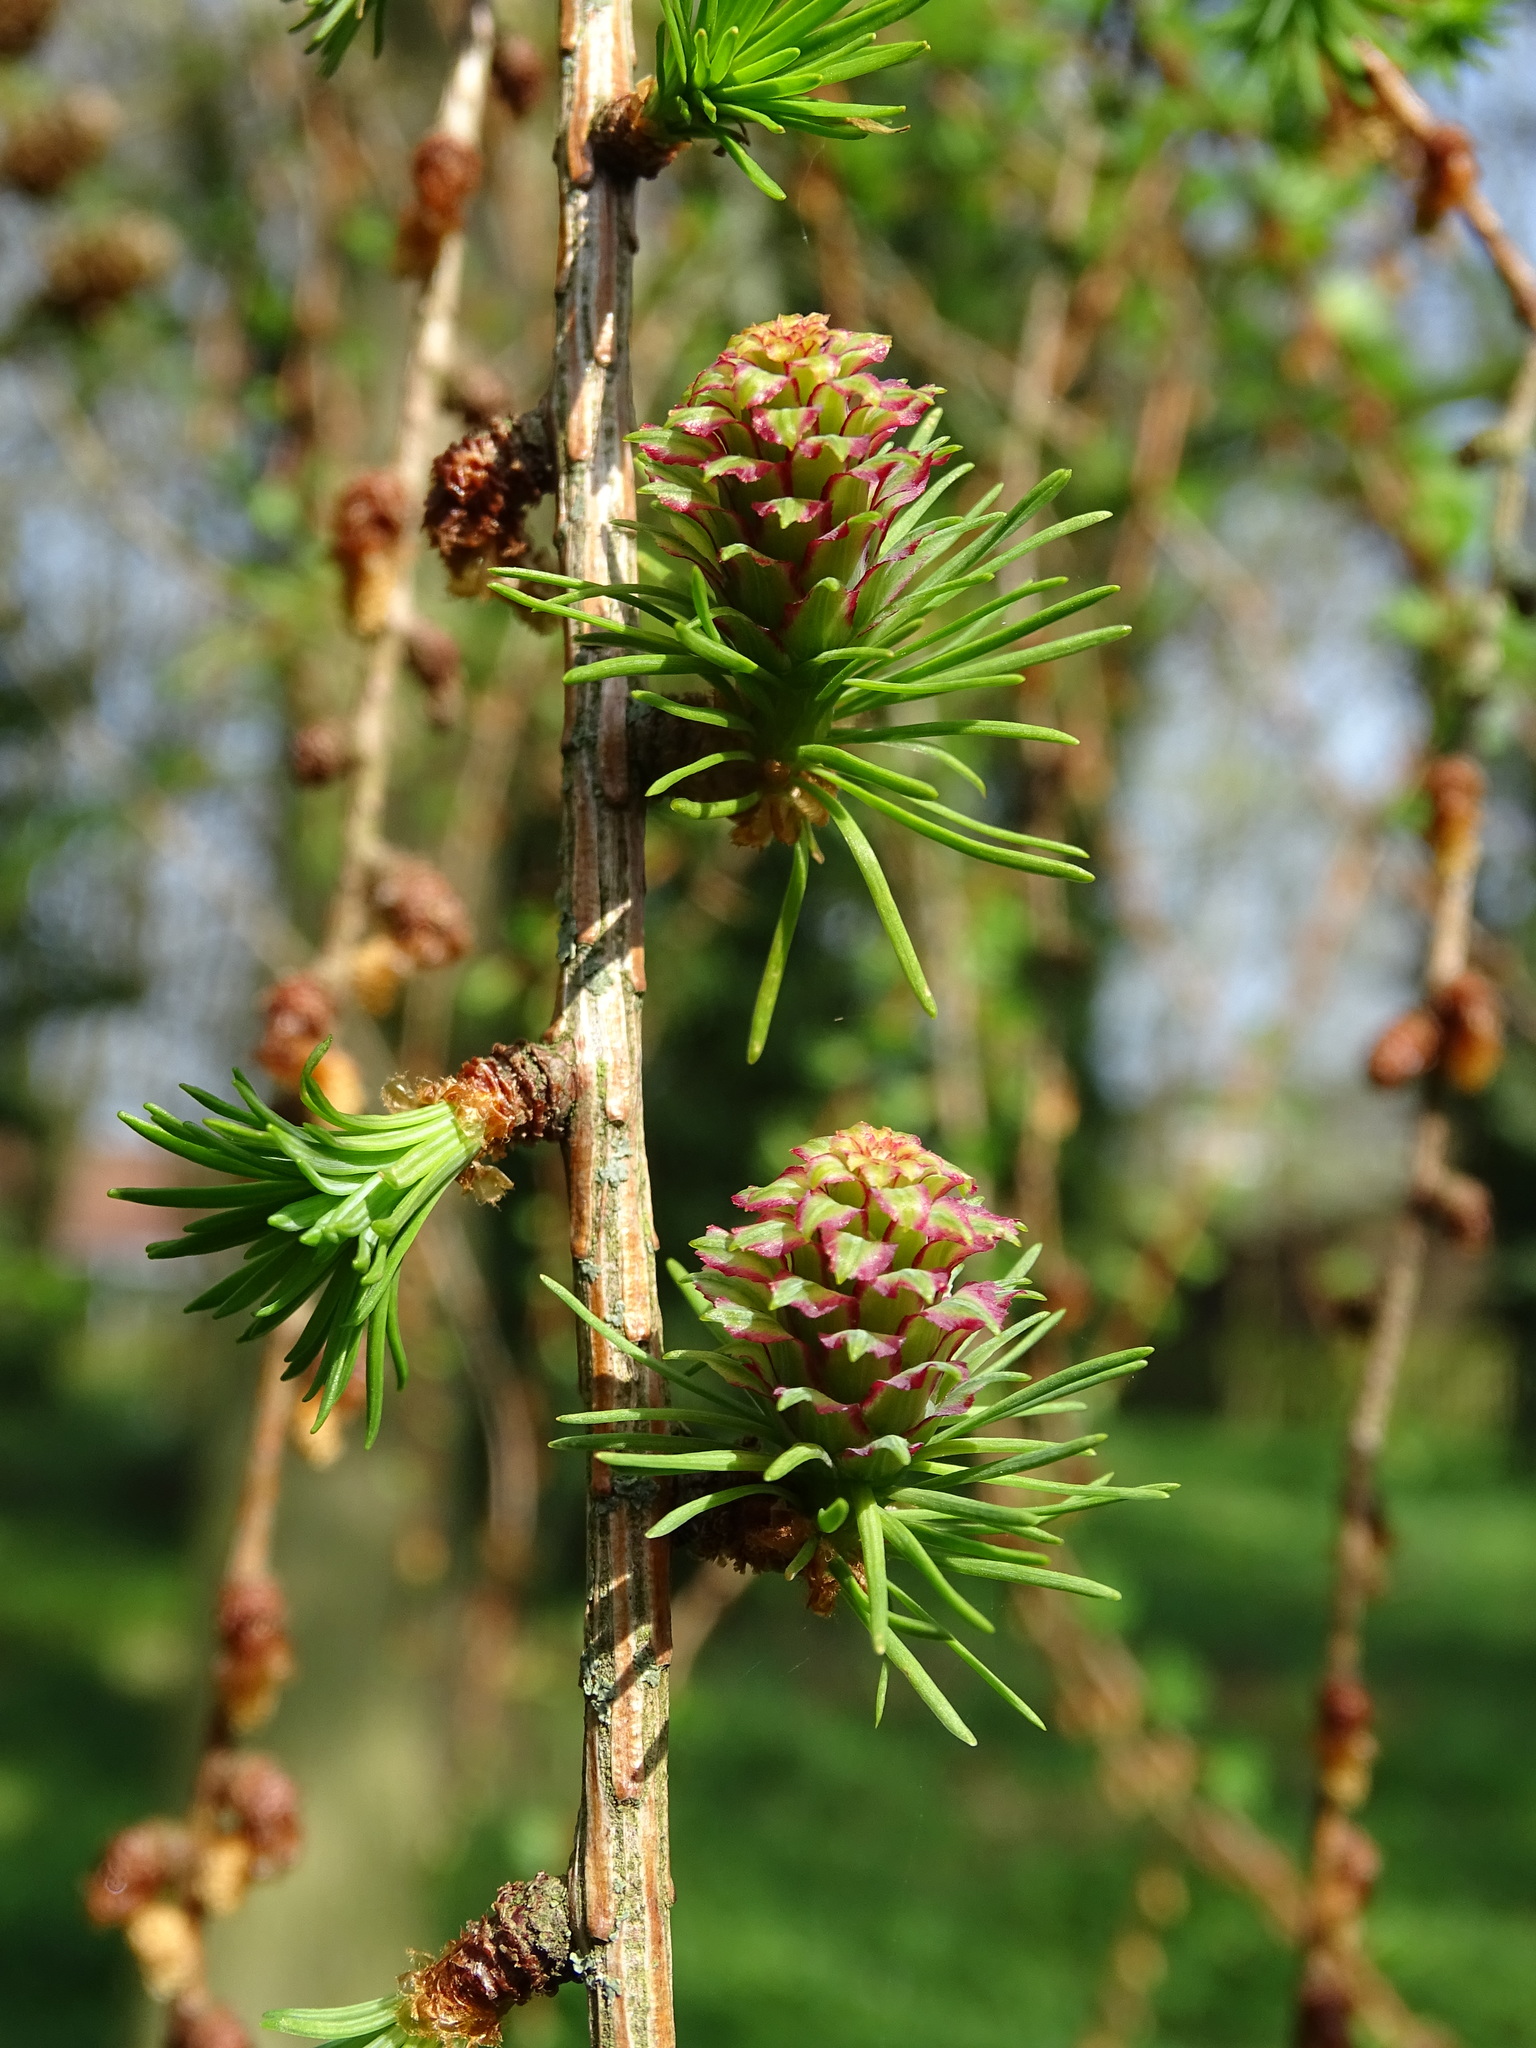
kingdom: Plantae
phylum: Tracheophyta
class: Pinopsida
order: Pinales
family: Pinaceae
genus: Larix
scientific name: Larix decidua
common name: European larch
